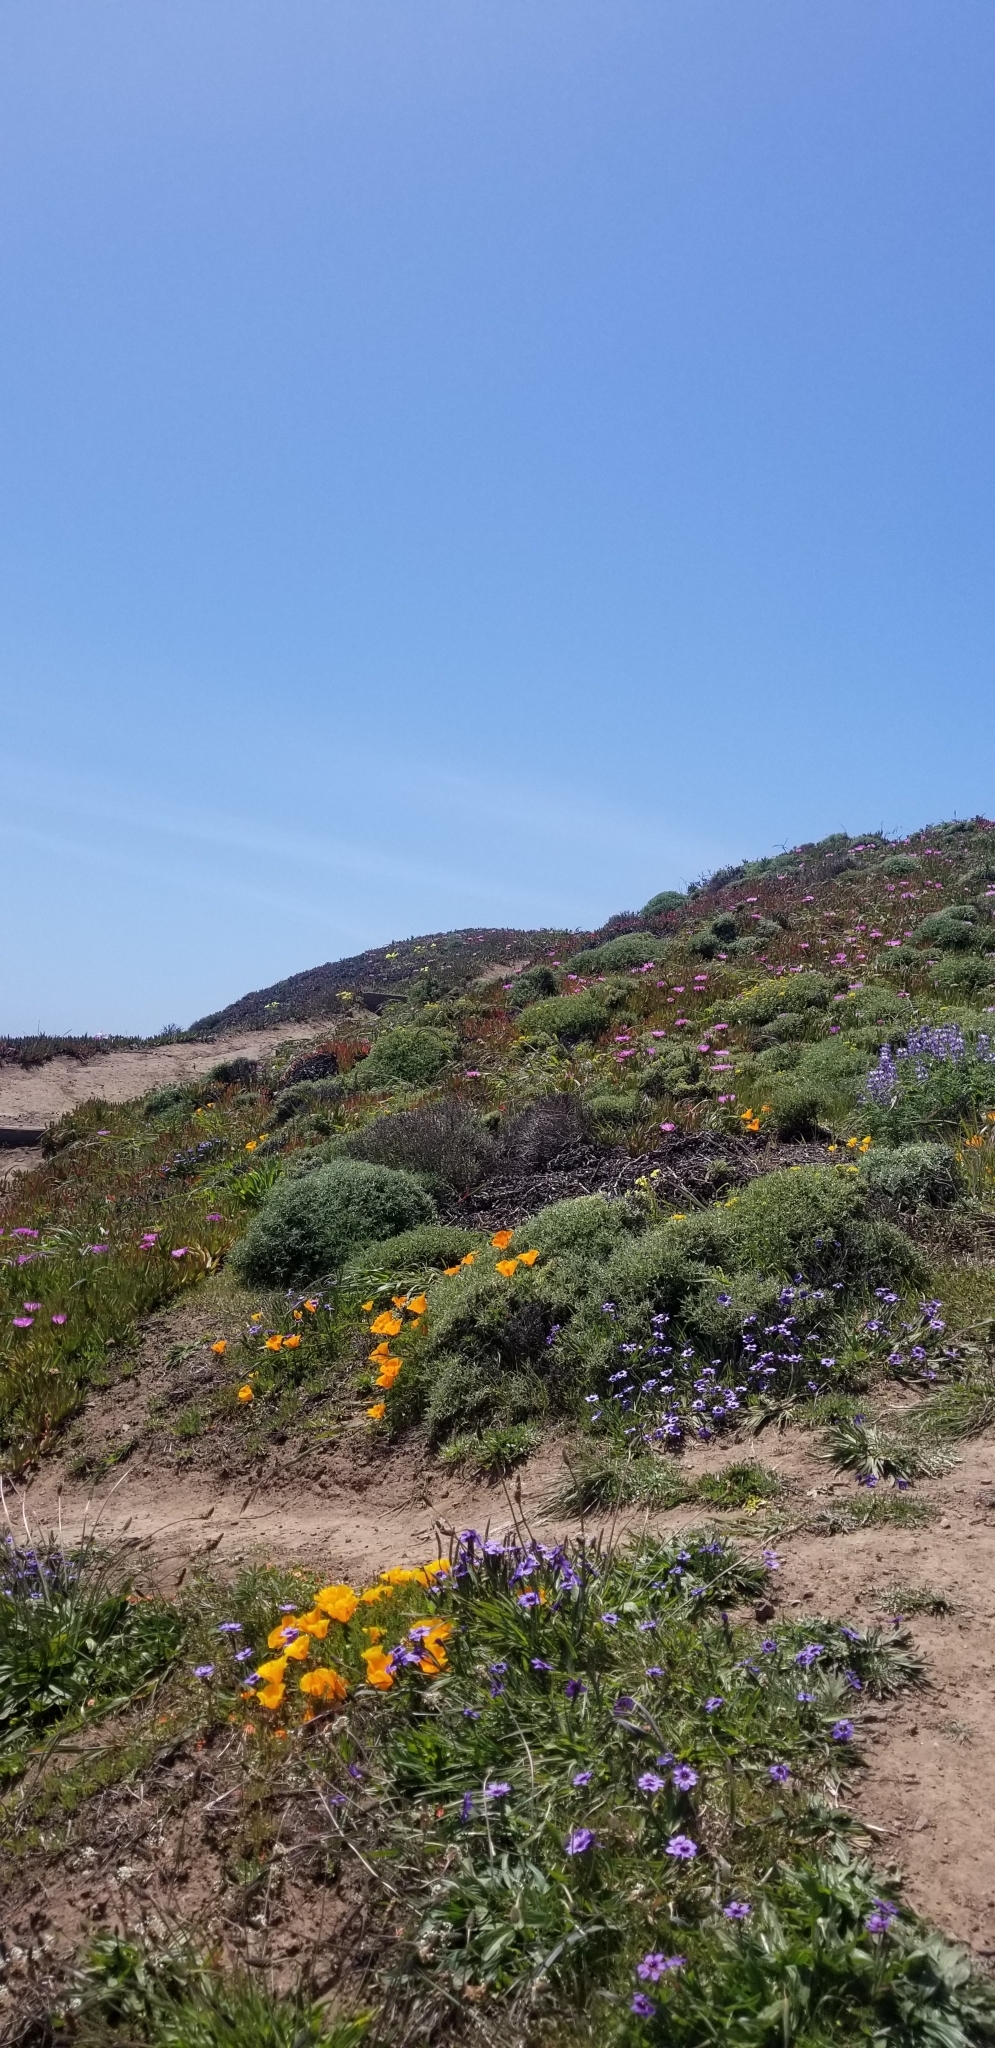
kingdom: Plantae
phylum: Tracheophyta
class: Magnoliopsida
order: Ranunculales
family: Papaveraceae
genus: Eschscholzia
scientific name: Eschscholzia californica
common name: California poppy
